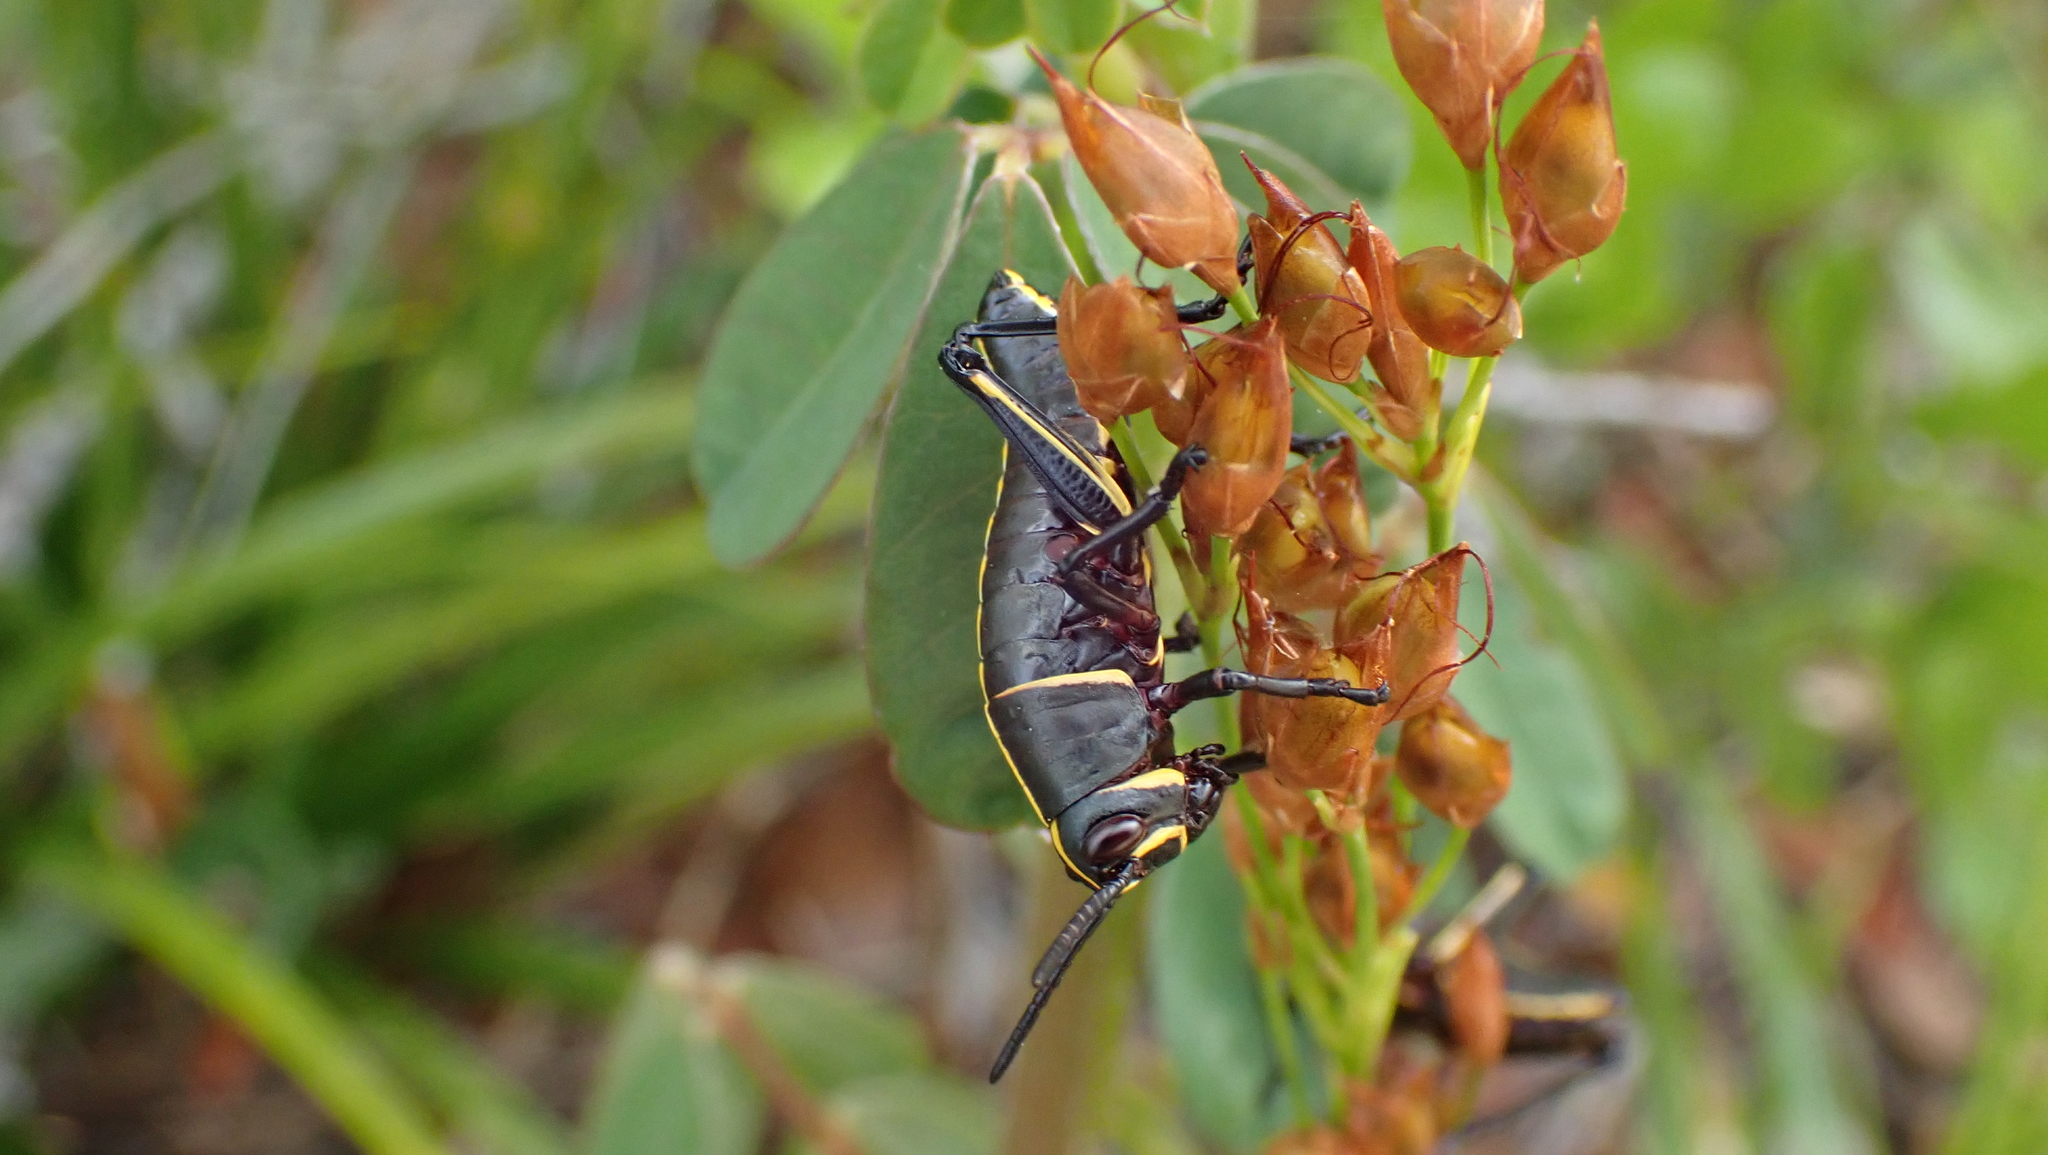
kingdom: Animalia
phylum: Arthropoda
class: Insecta
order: Orthoptera
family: Romaleidae
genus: Romalea
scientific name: Romalea microptera
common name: Eastern lubber grasshopper
